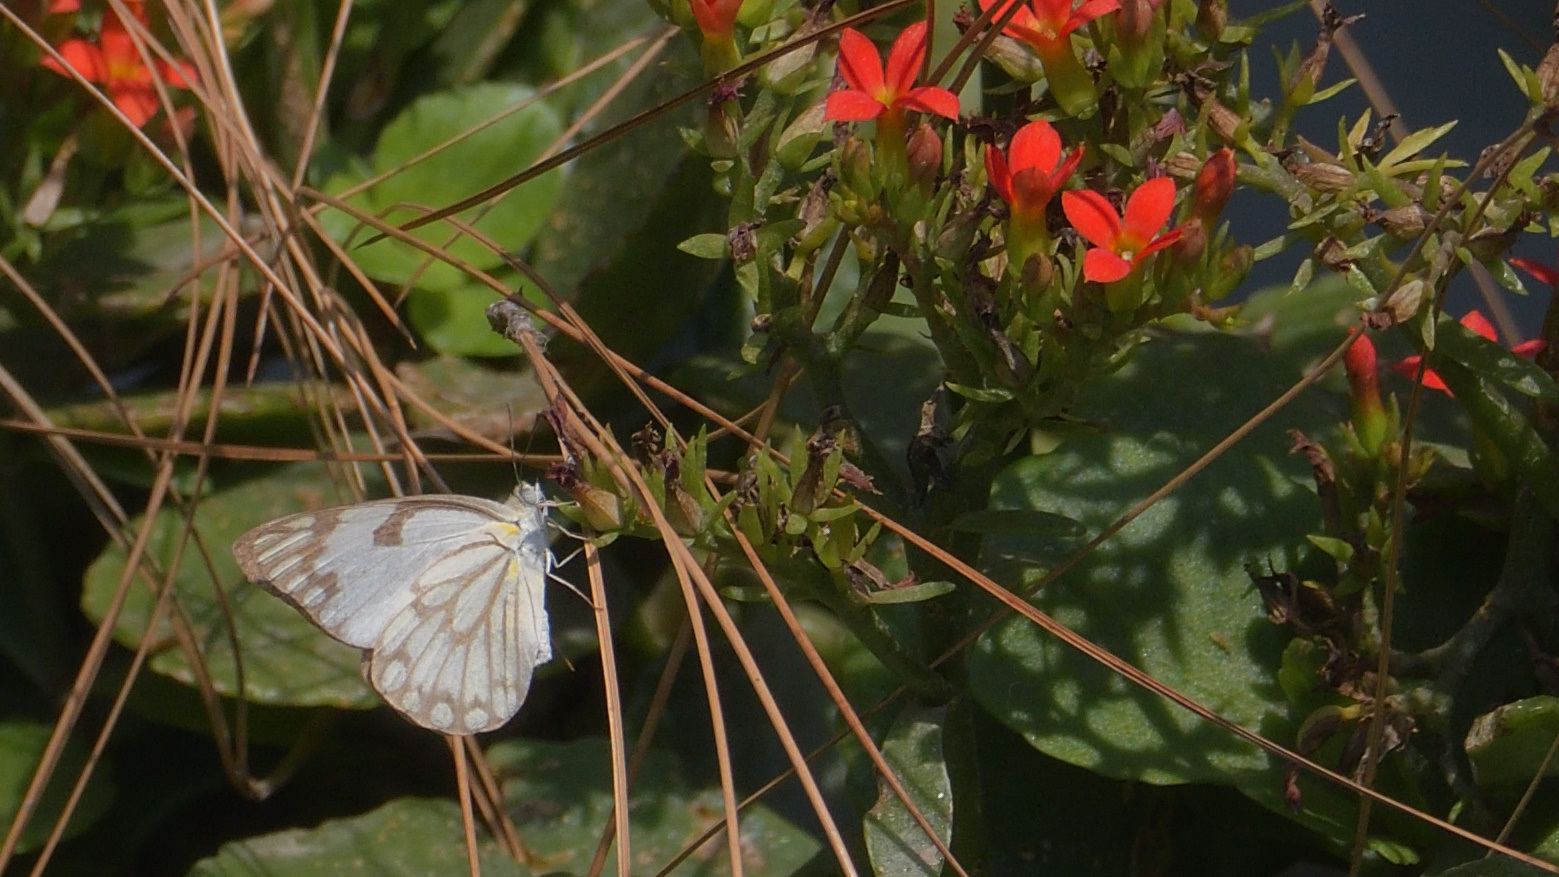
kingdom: Animalia
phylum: Arthropoda
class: Insecta
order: Lepidoptera
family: Pieridae
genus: Belenois
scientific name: Belenois aurota
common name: Brown-veined white
